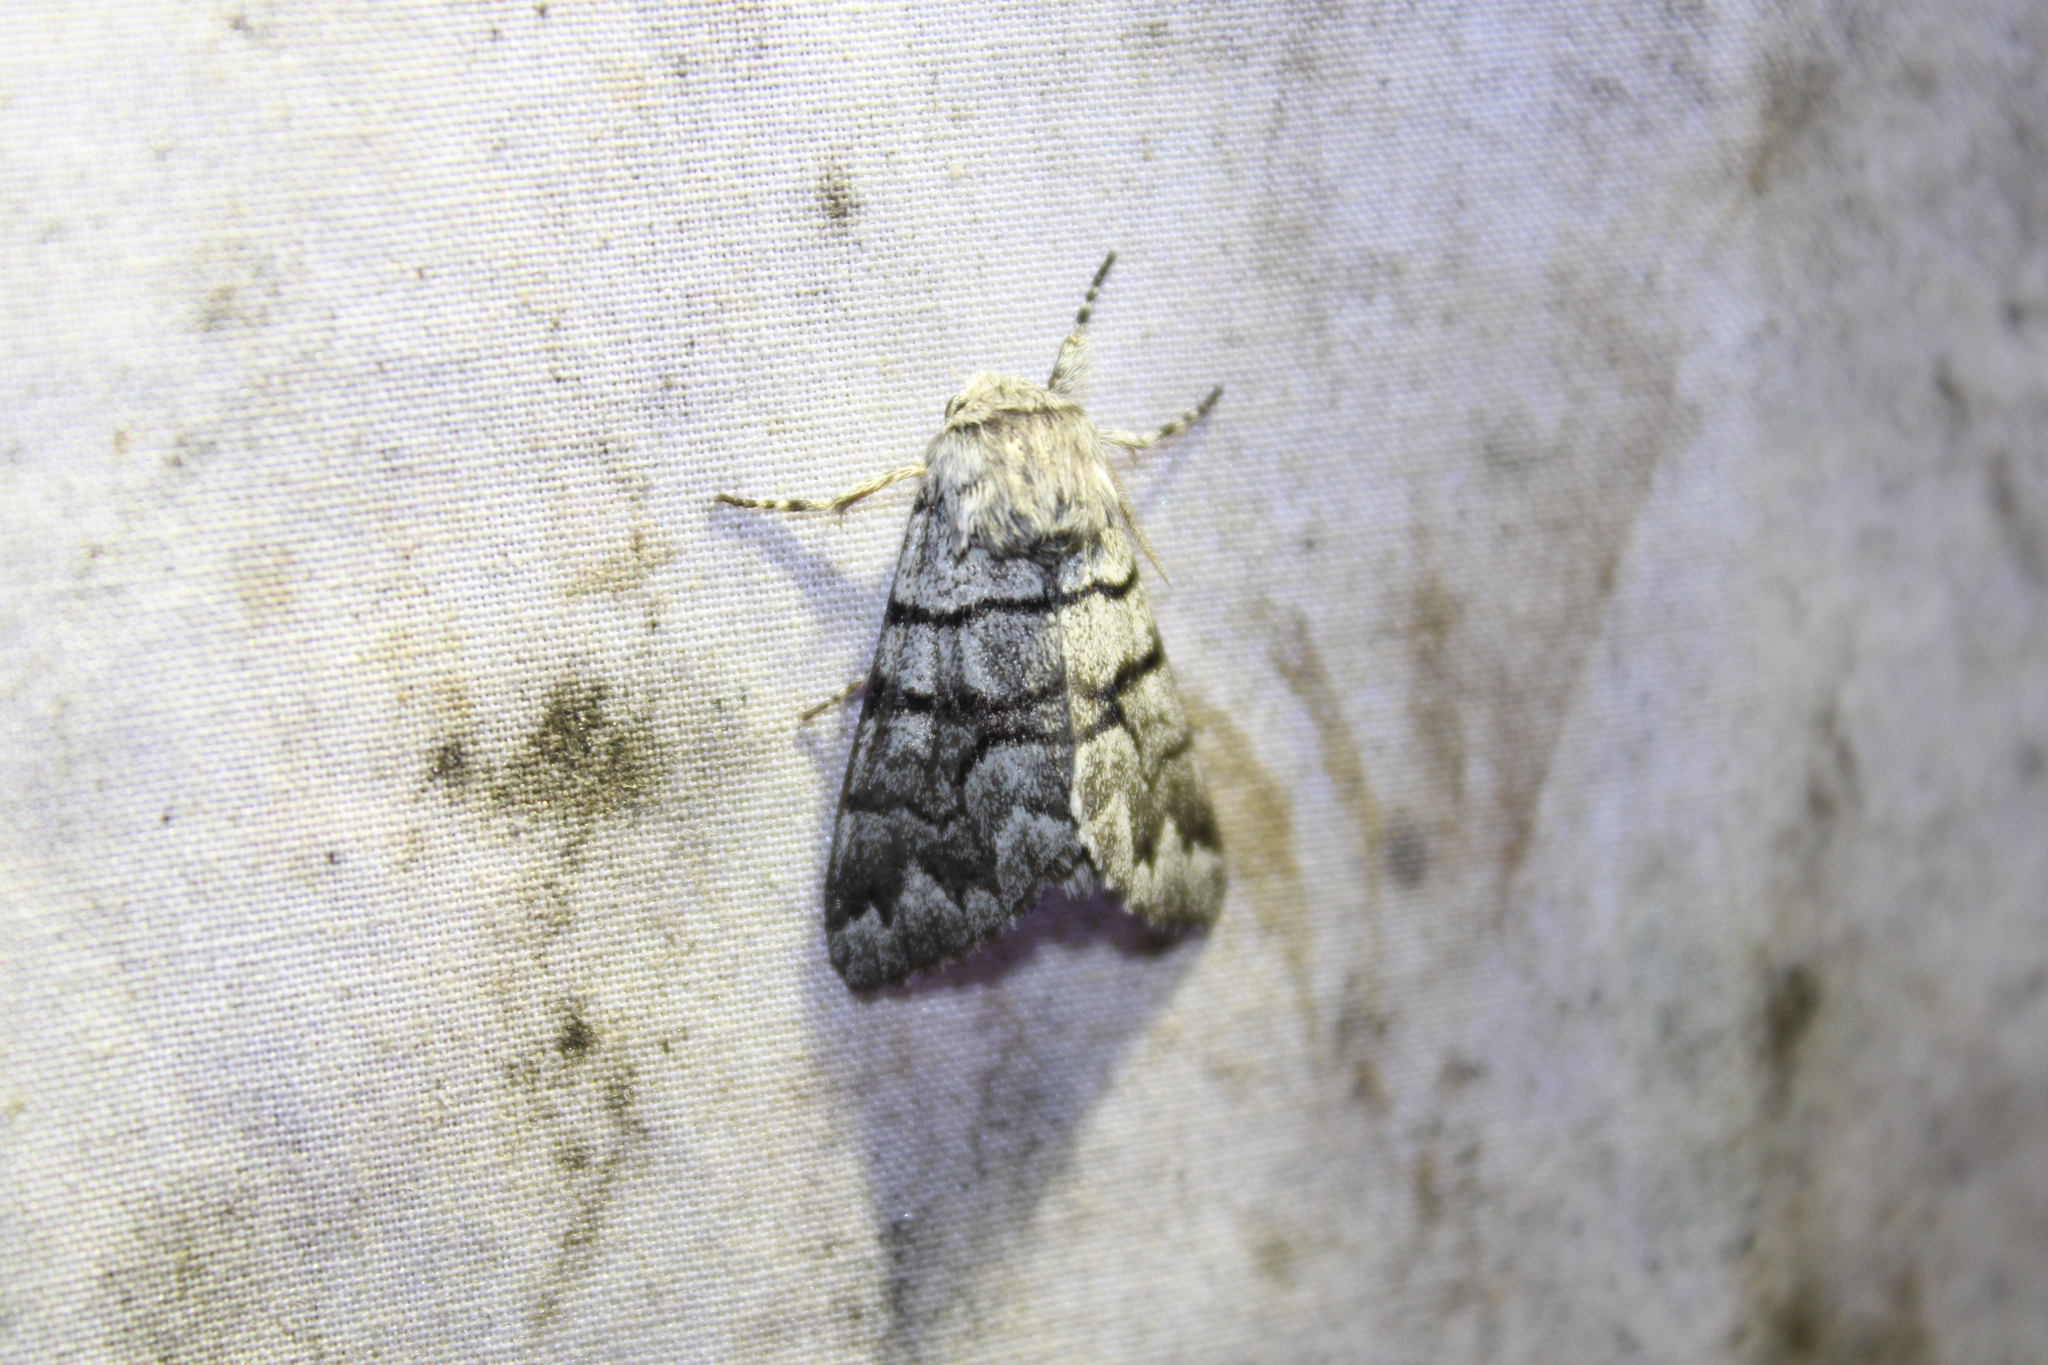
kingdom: Animalia
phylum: Arthropoda
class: Insecta
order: Lepidoptera
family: Noctuidae
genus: Panthea
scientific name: Panthea furcilla
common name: Eastern panthea moth
